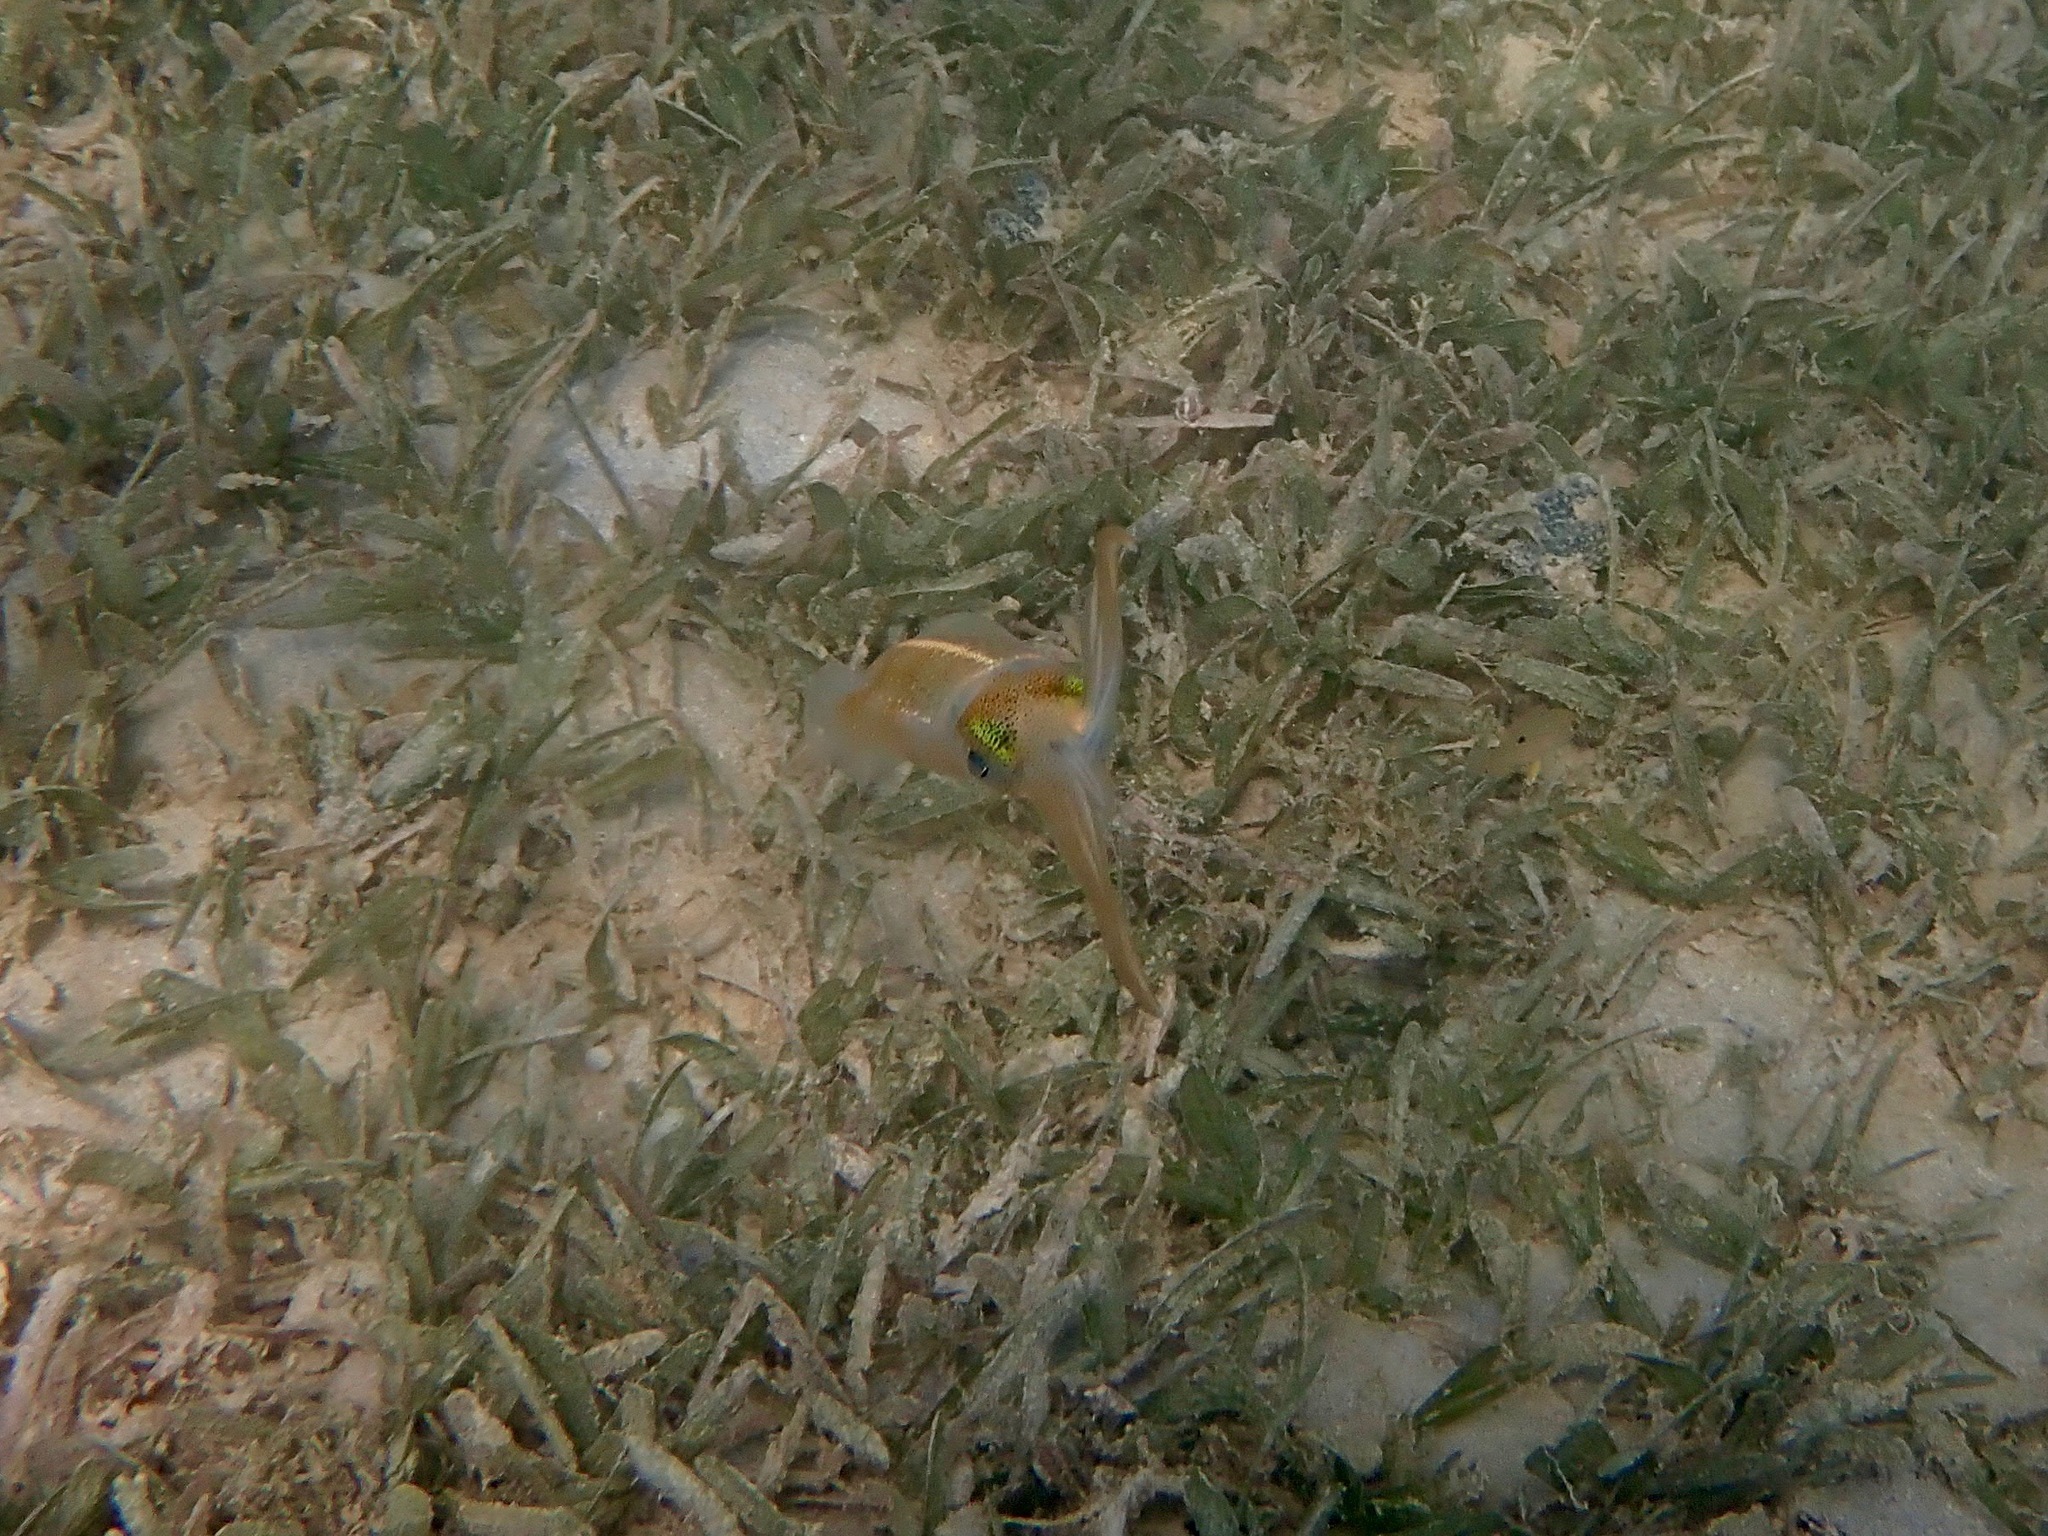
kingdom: Animalia
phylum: Mollusca
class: Cephalopoda
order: Myopsida
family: Loliginidae
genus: Sepioteuthis
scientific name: Sepioteuthis sepioidea
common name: Caribbean reef squid
